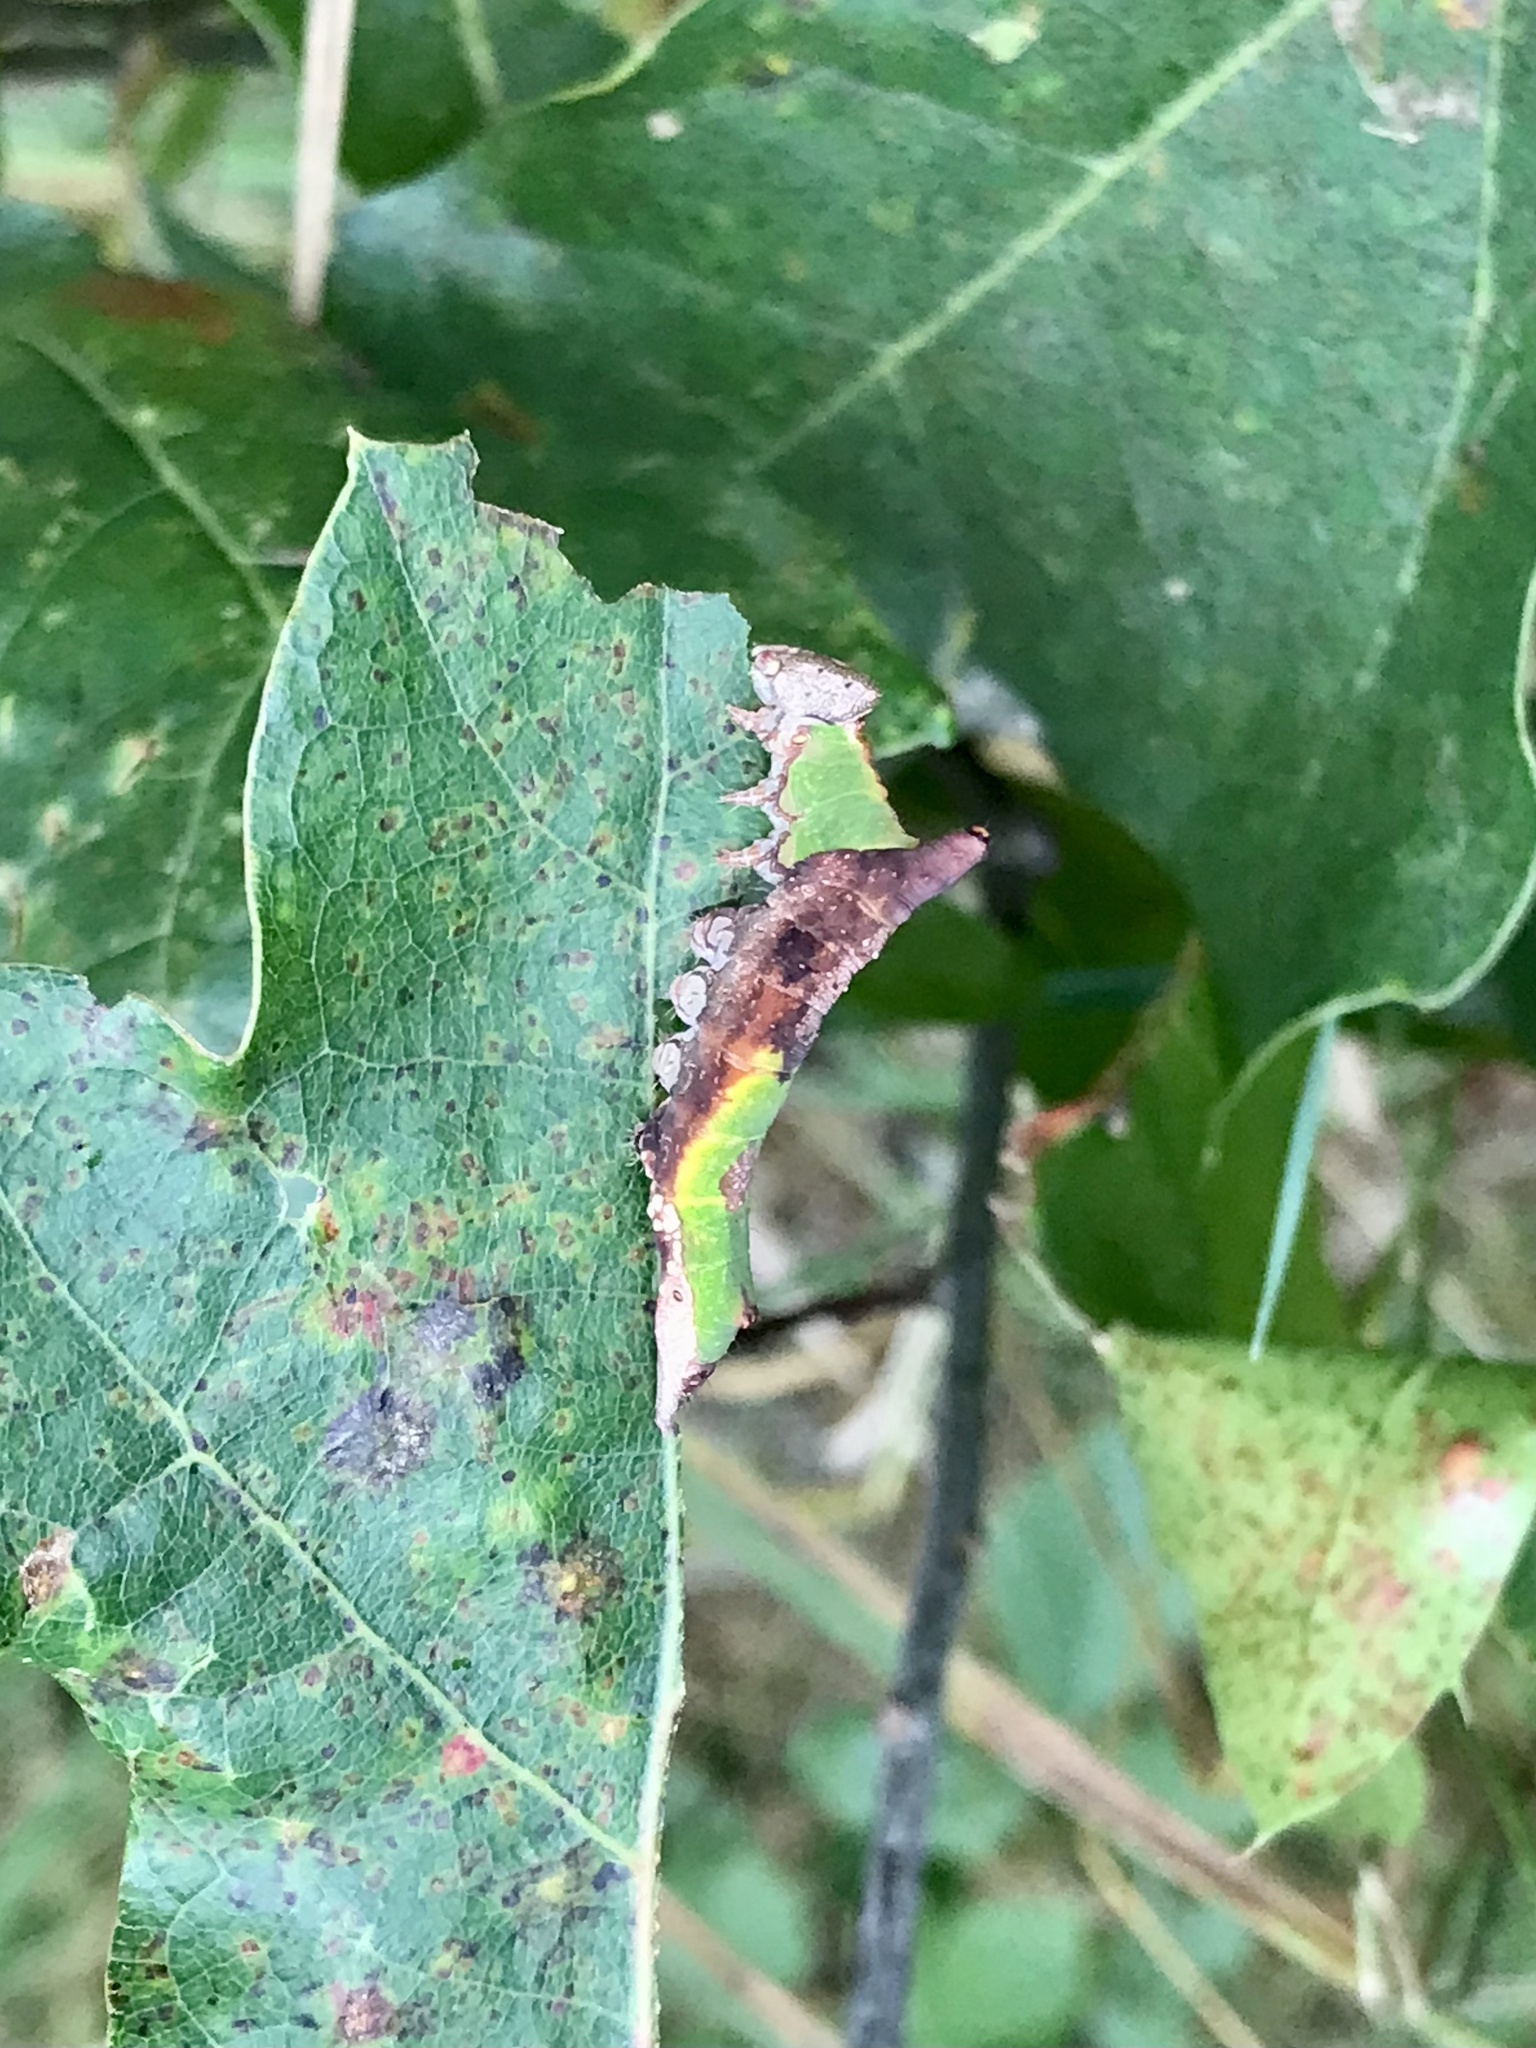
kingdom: Animalia
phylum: Arthropoda
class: Insecta
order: Lepidoptera
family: Notodontidae
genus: Oligocentria
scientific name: Oligocentria Ianassa lignicolor
